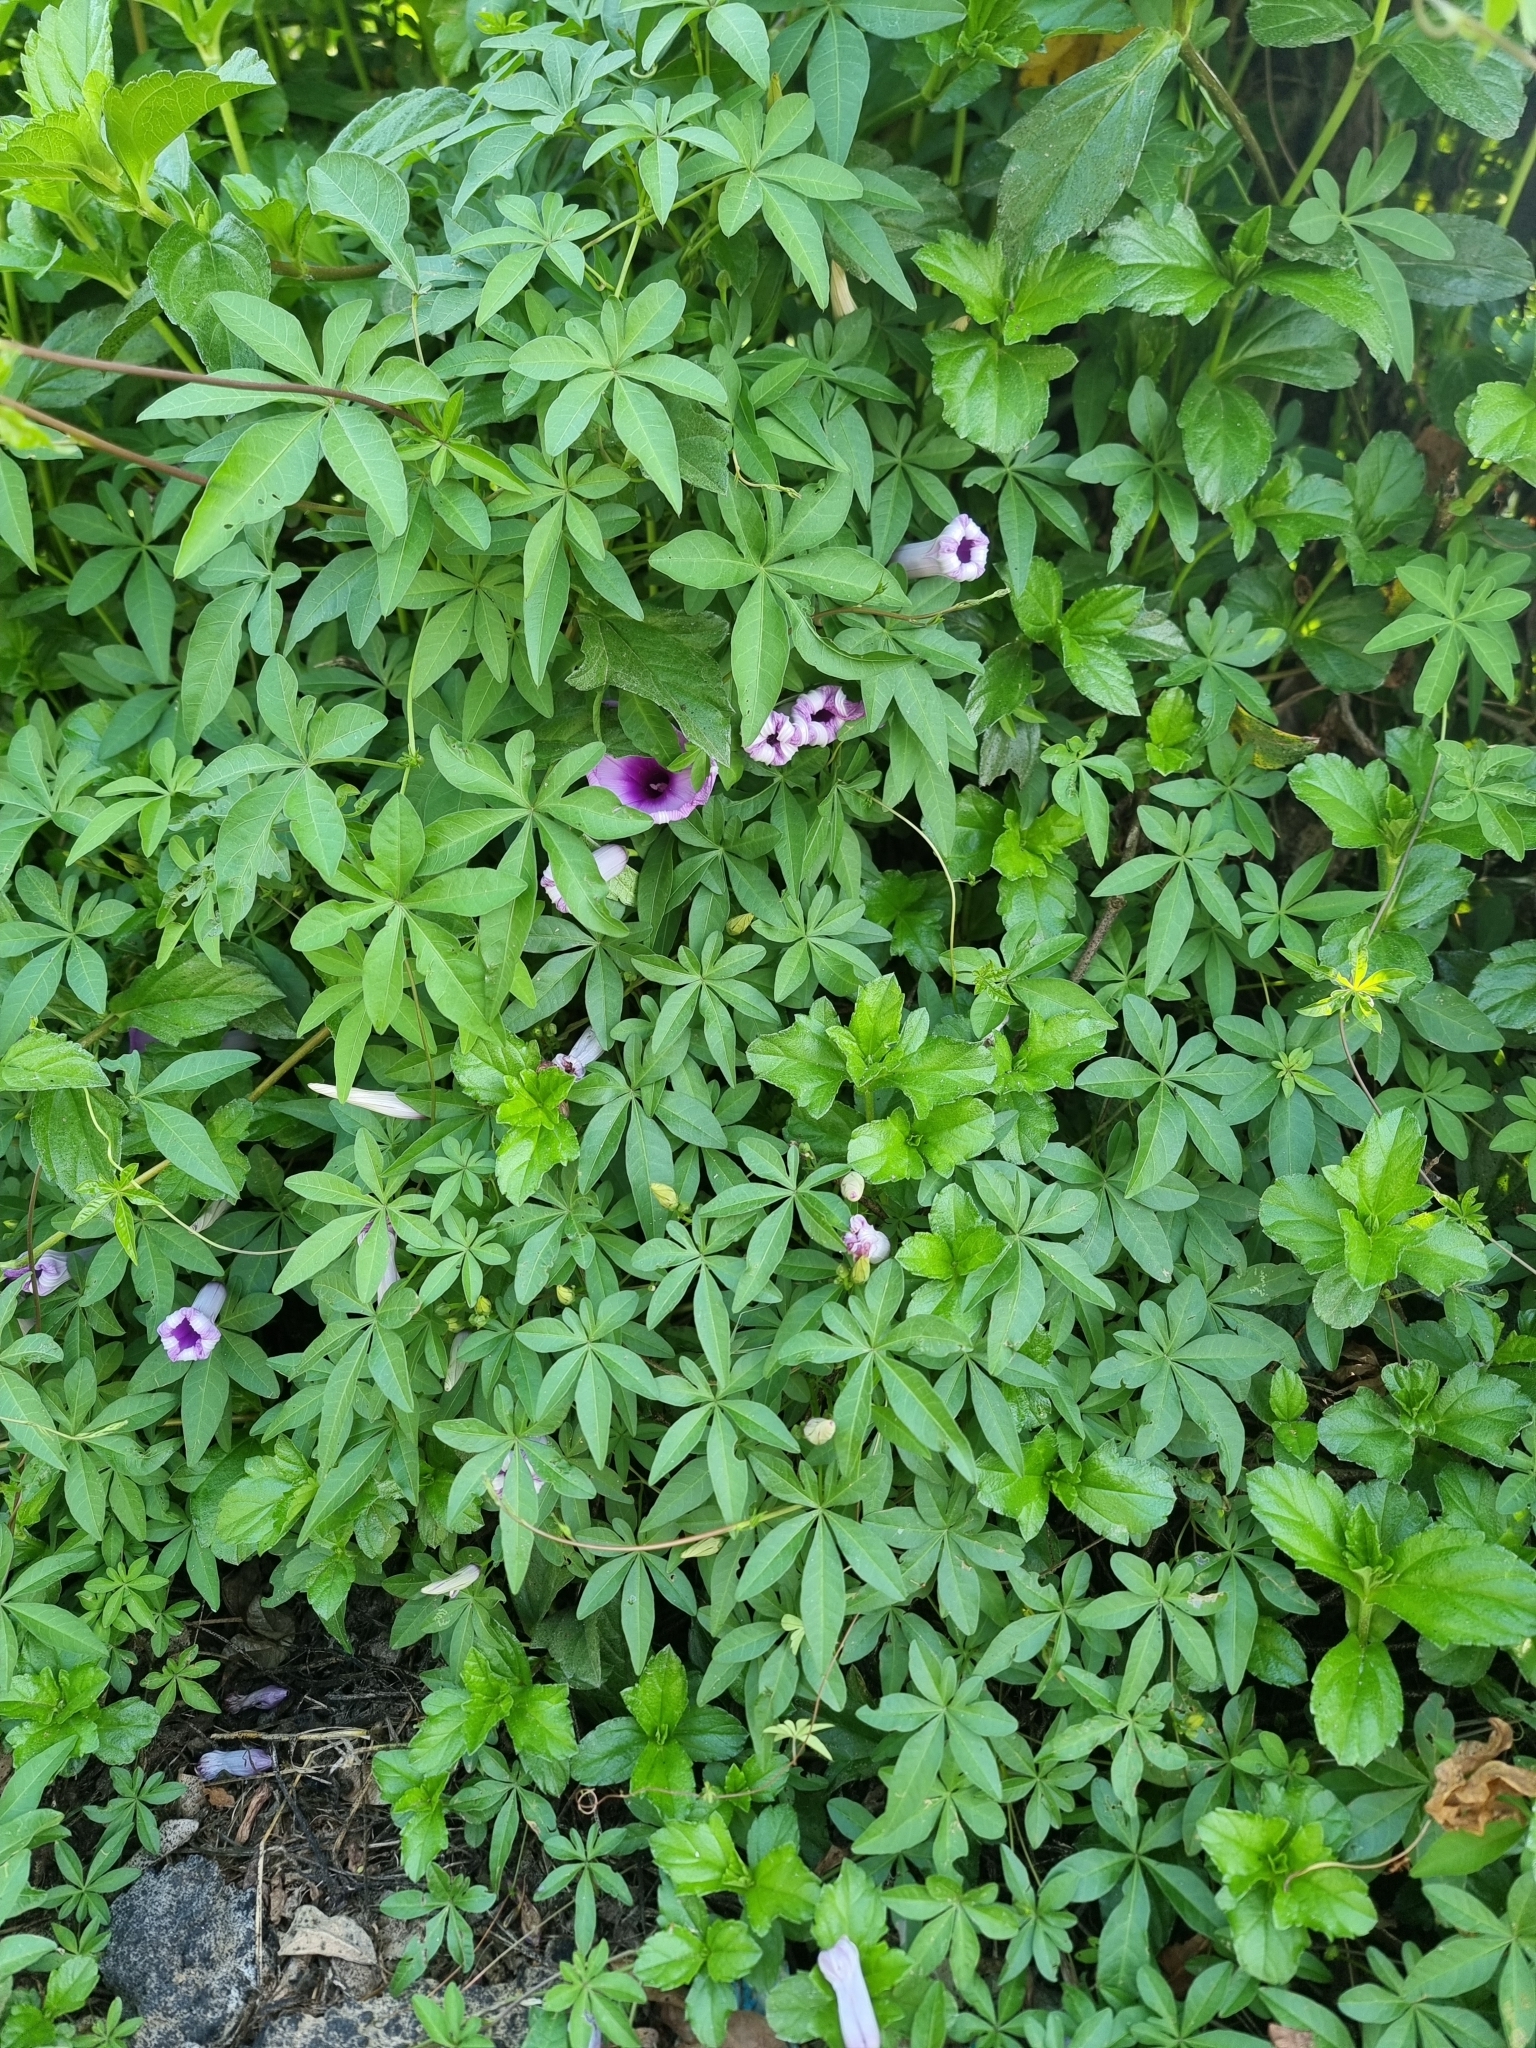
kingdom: Plantae
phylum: Tracheophyta
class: Magnoliopsida
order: Solanales
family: Convolvulaceae
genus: Ipomoea
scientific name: Ipomoea cairica
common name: Mile a minute vine
